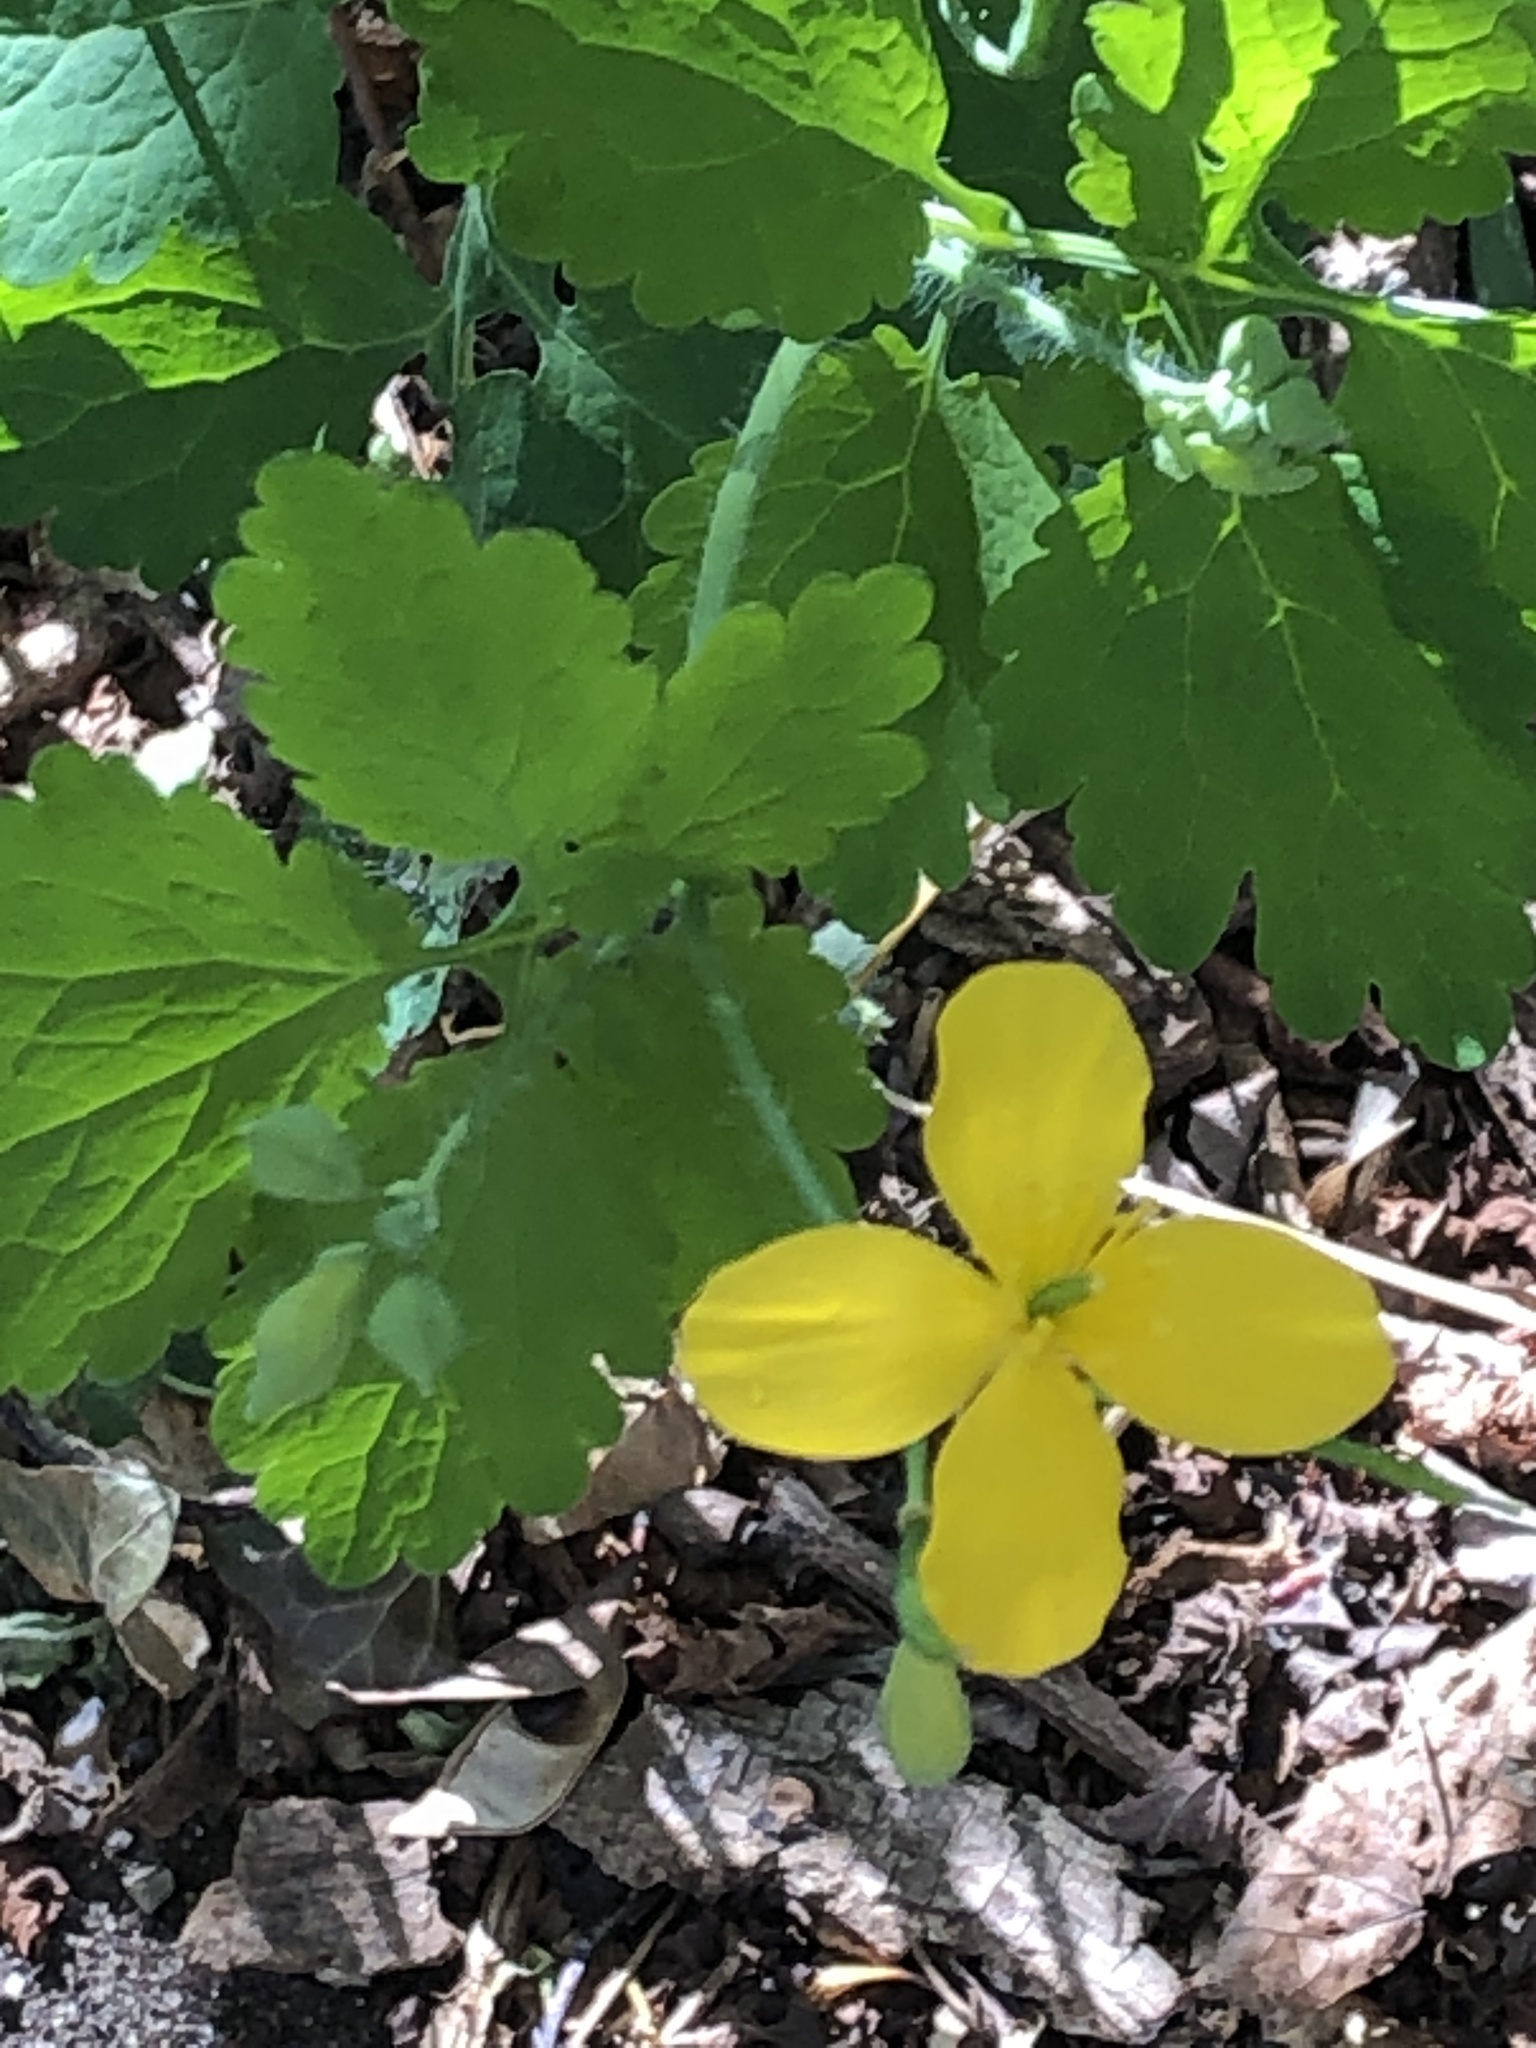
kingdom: Plantae
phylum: Tracheophyta
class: Magnoliopsida
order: Ranunculales
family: Papaveraceae
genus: Chelidonium
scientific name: Chelidonium majus
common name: Greater celandine
